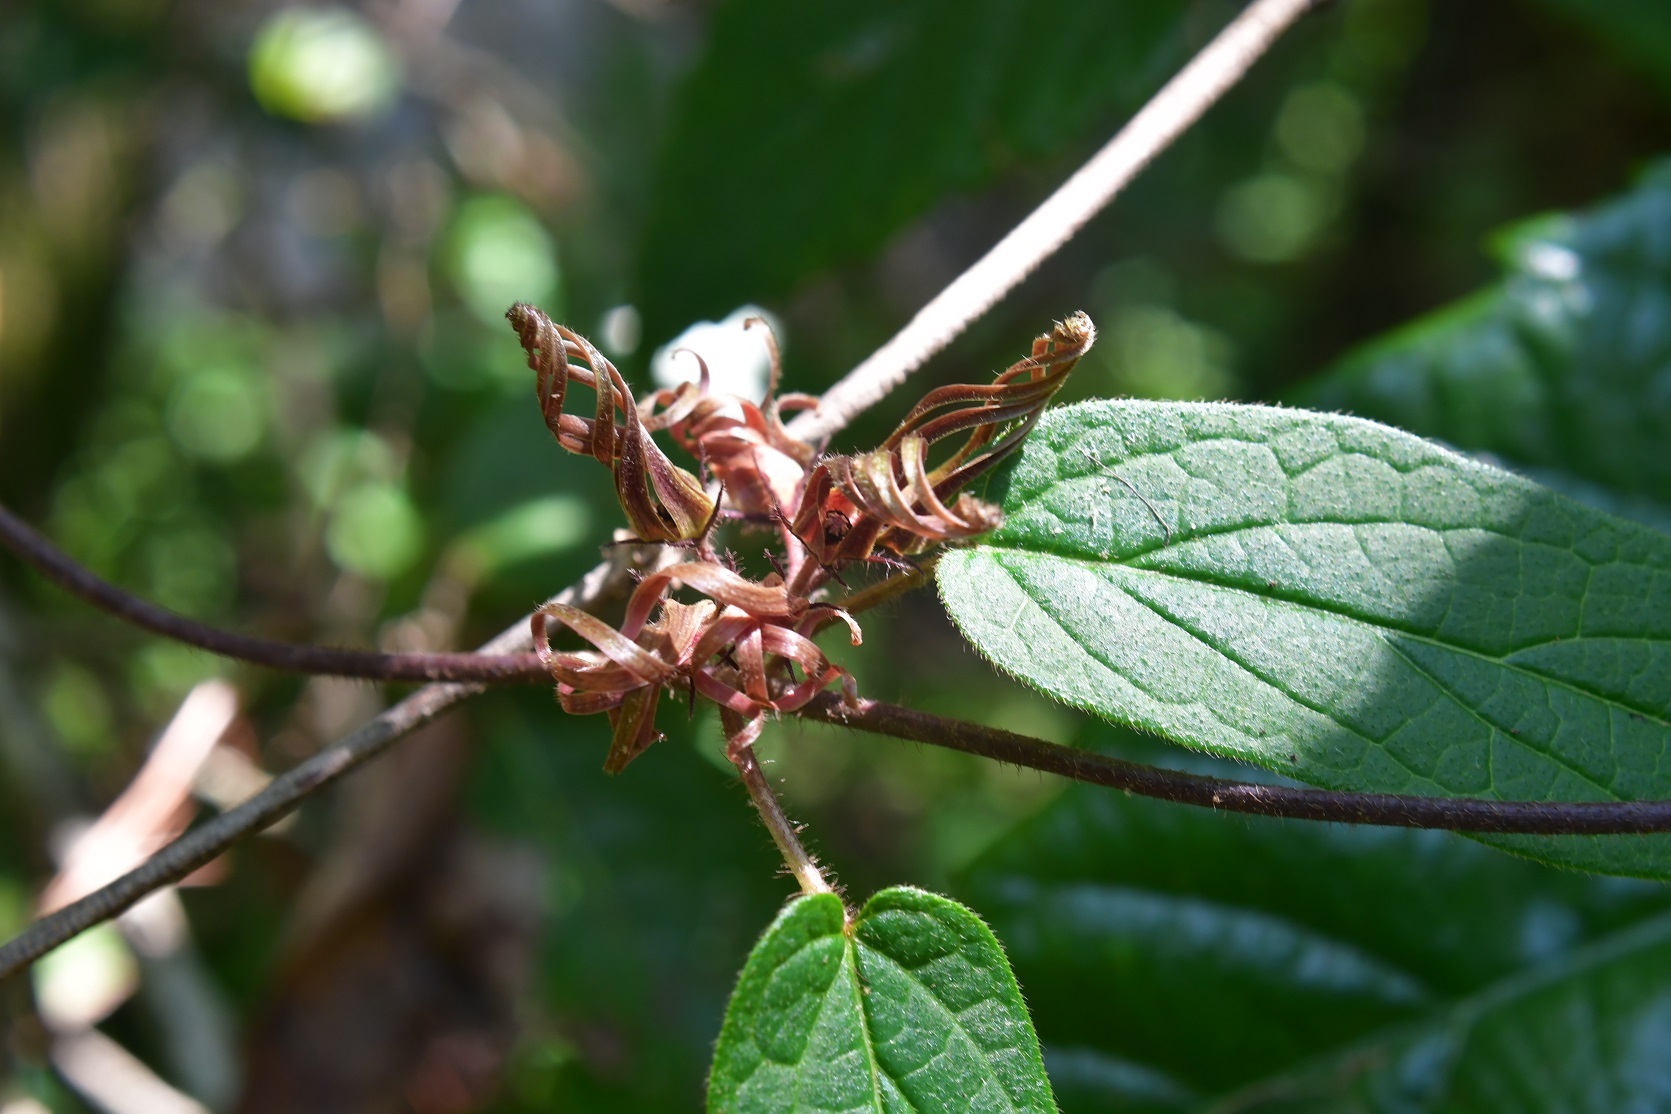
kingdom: Plantae
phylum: Tracheophyta
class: Magnoliopsida
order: Gentianales
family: Apocynaceae
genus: Matelea
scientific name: Matelea medusae
